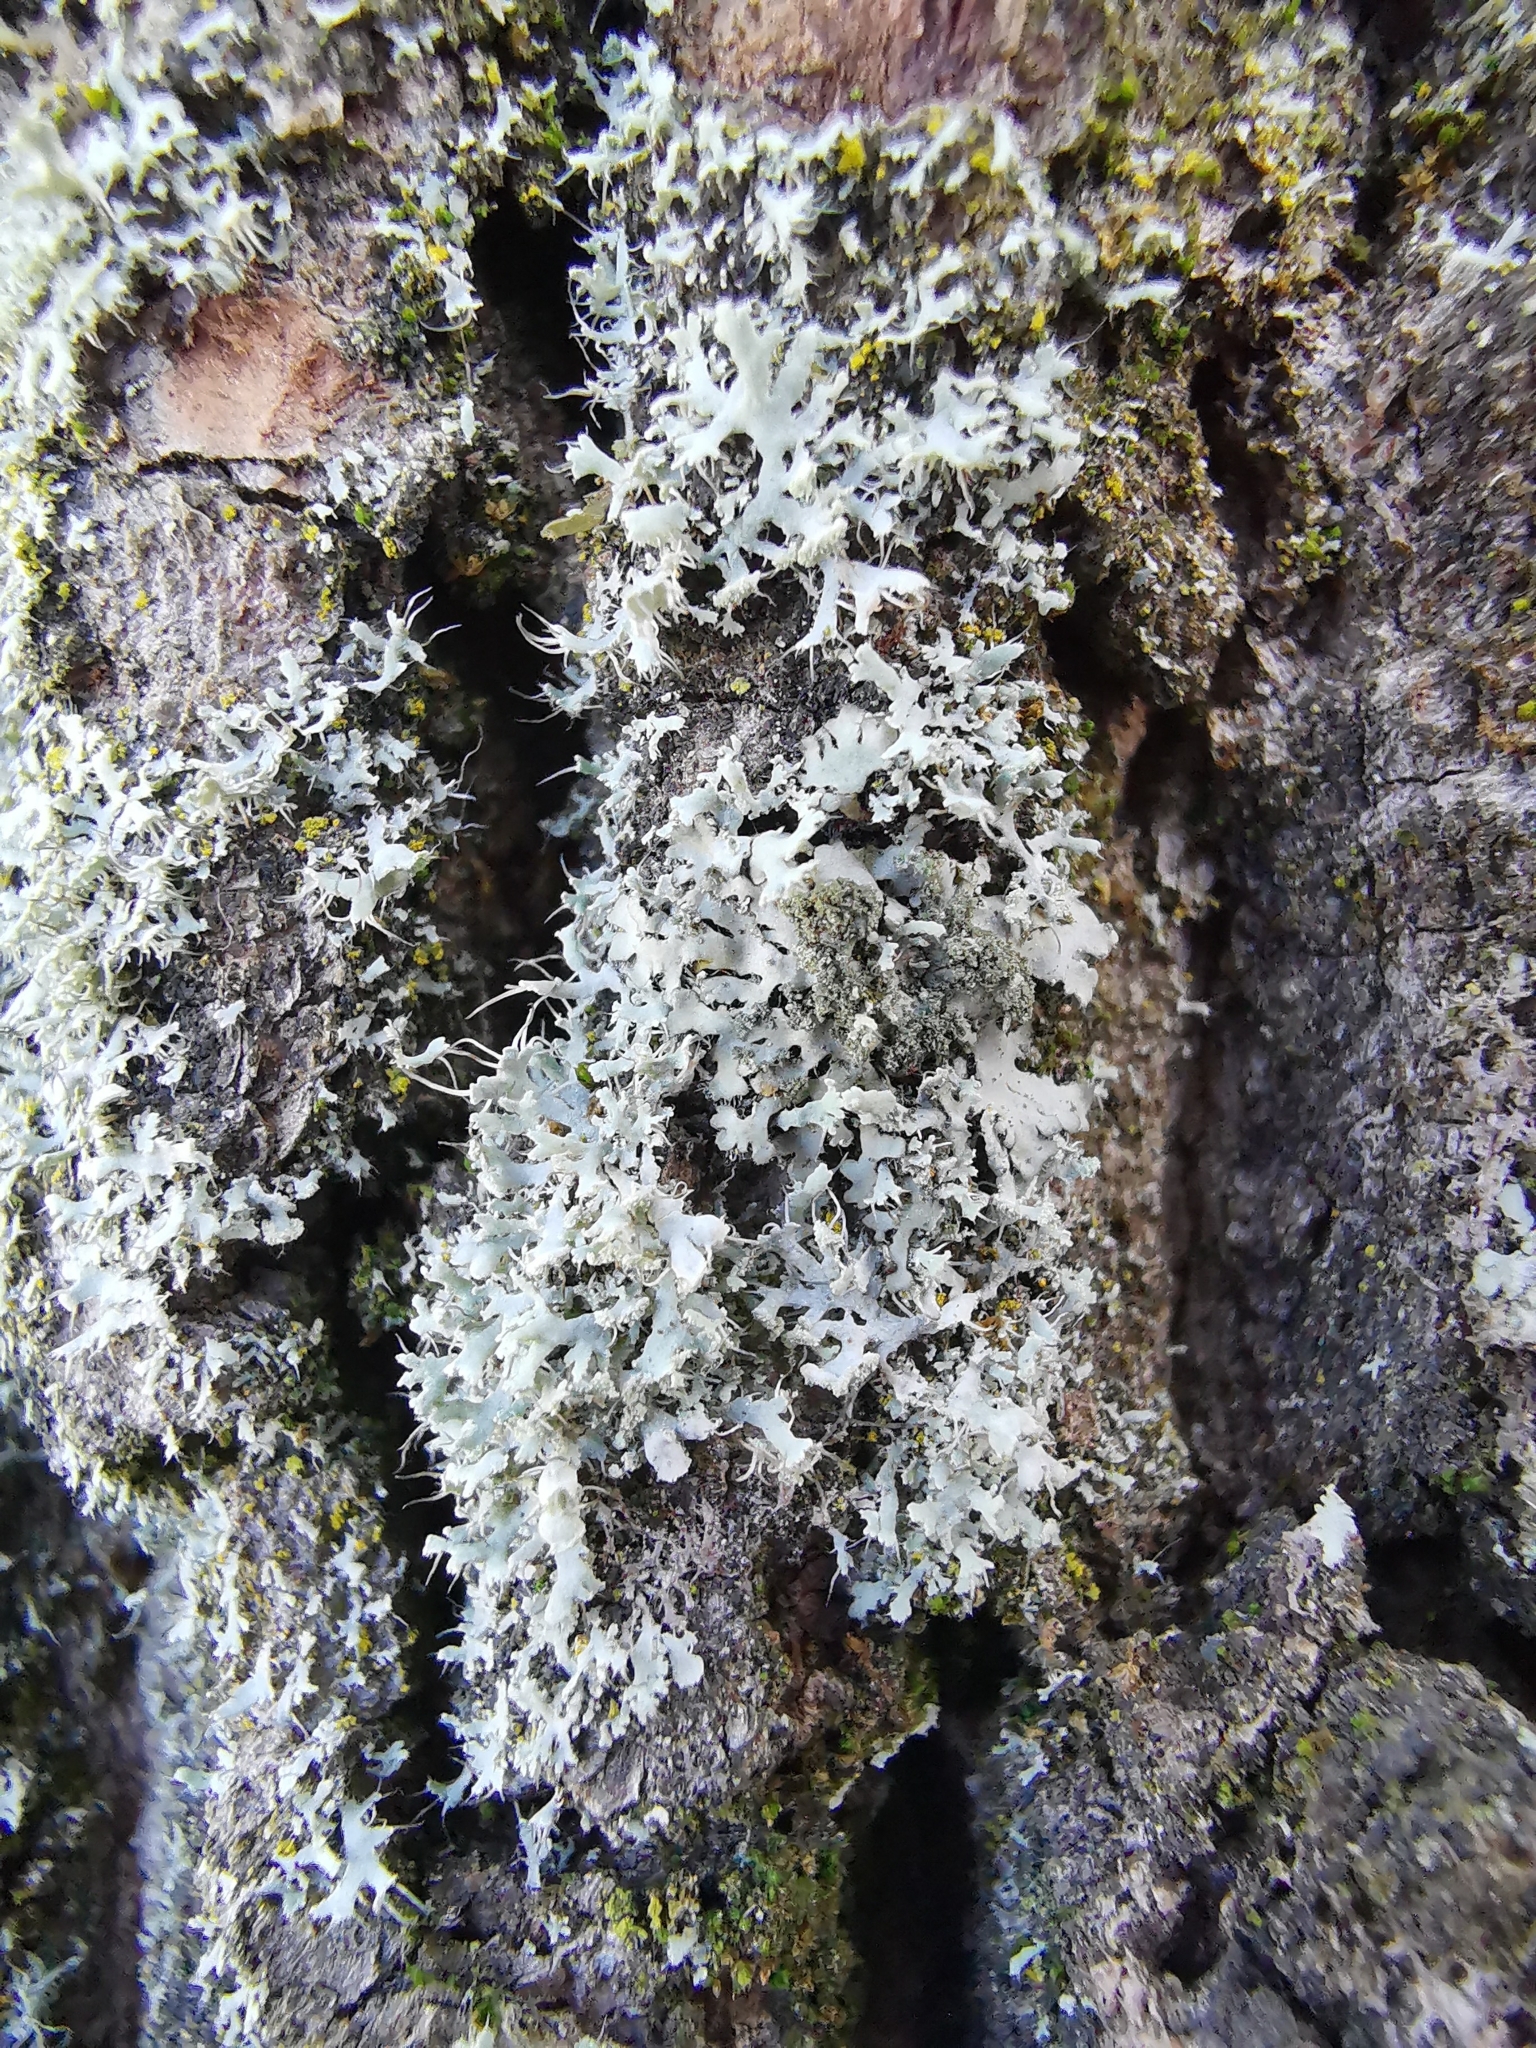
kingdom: Fungi
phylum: Ascomycota
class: Lecanoromycetes
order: Caliciales
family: Physciaceae
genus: Physcia
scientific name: Physcia adscendens
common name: Hooded rosette lichen
